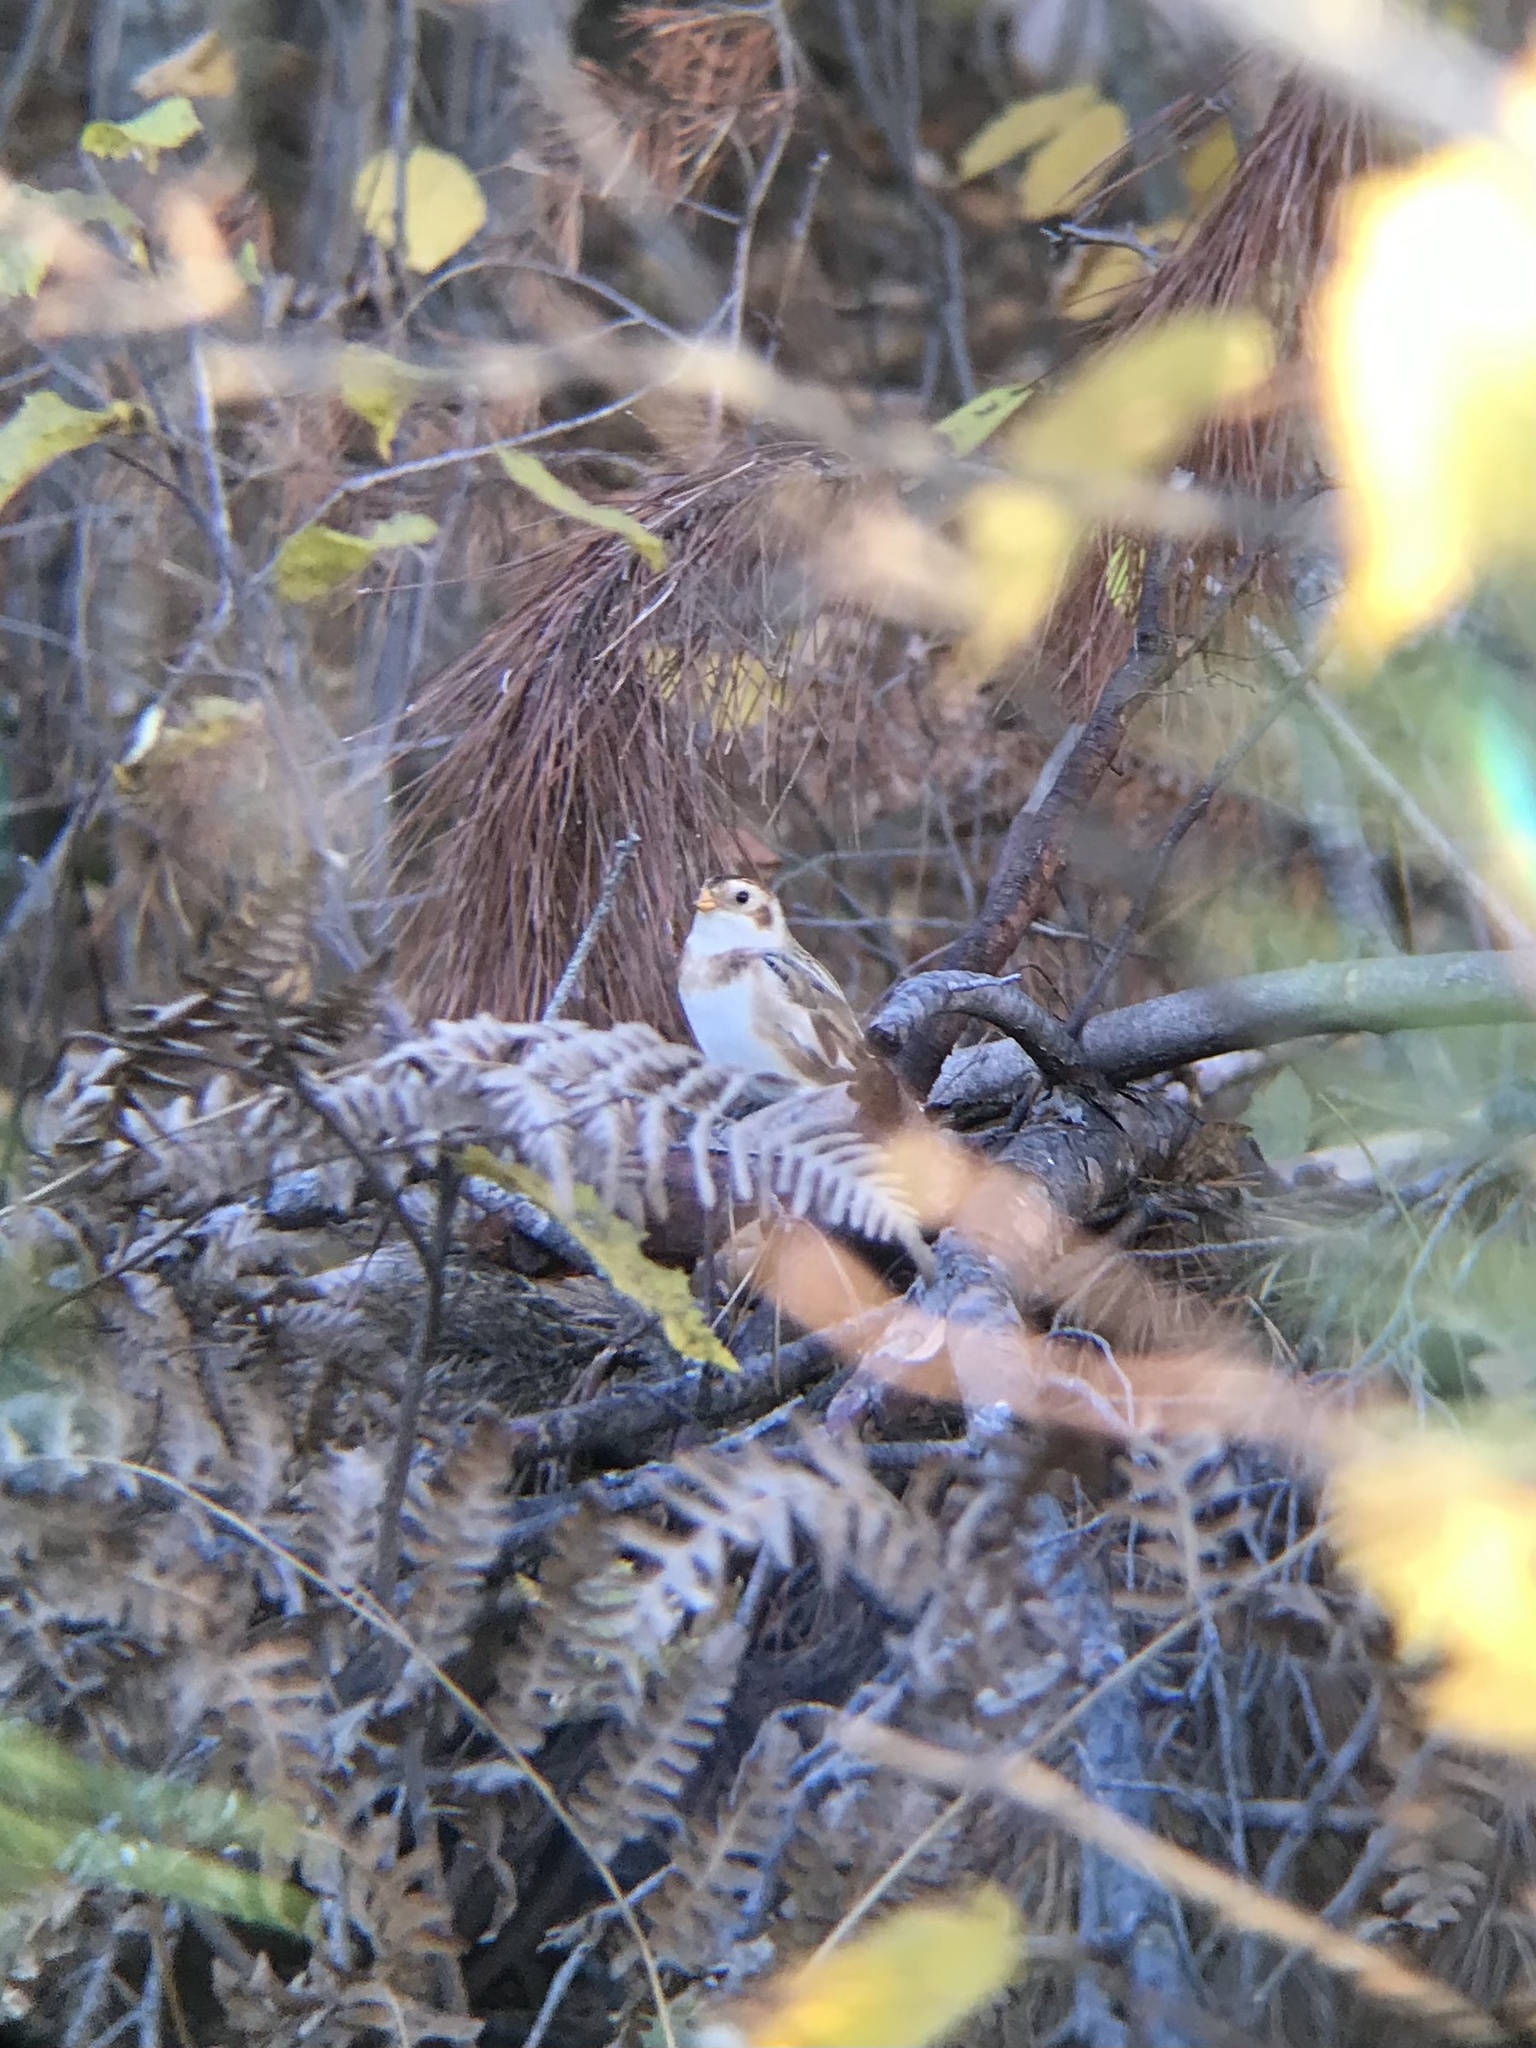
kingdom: Animalia
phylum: Chordata
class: Aves
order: Passeriformes
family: Calcariidae
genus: Plectrophenax
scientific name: Plectrophenax nivalis
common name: Snow bunting
